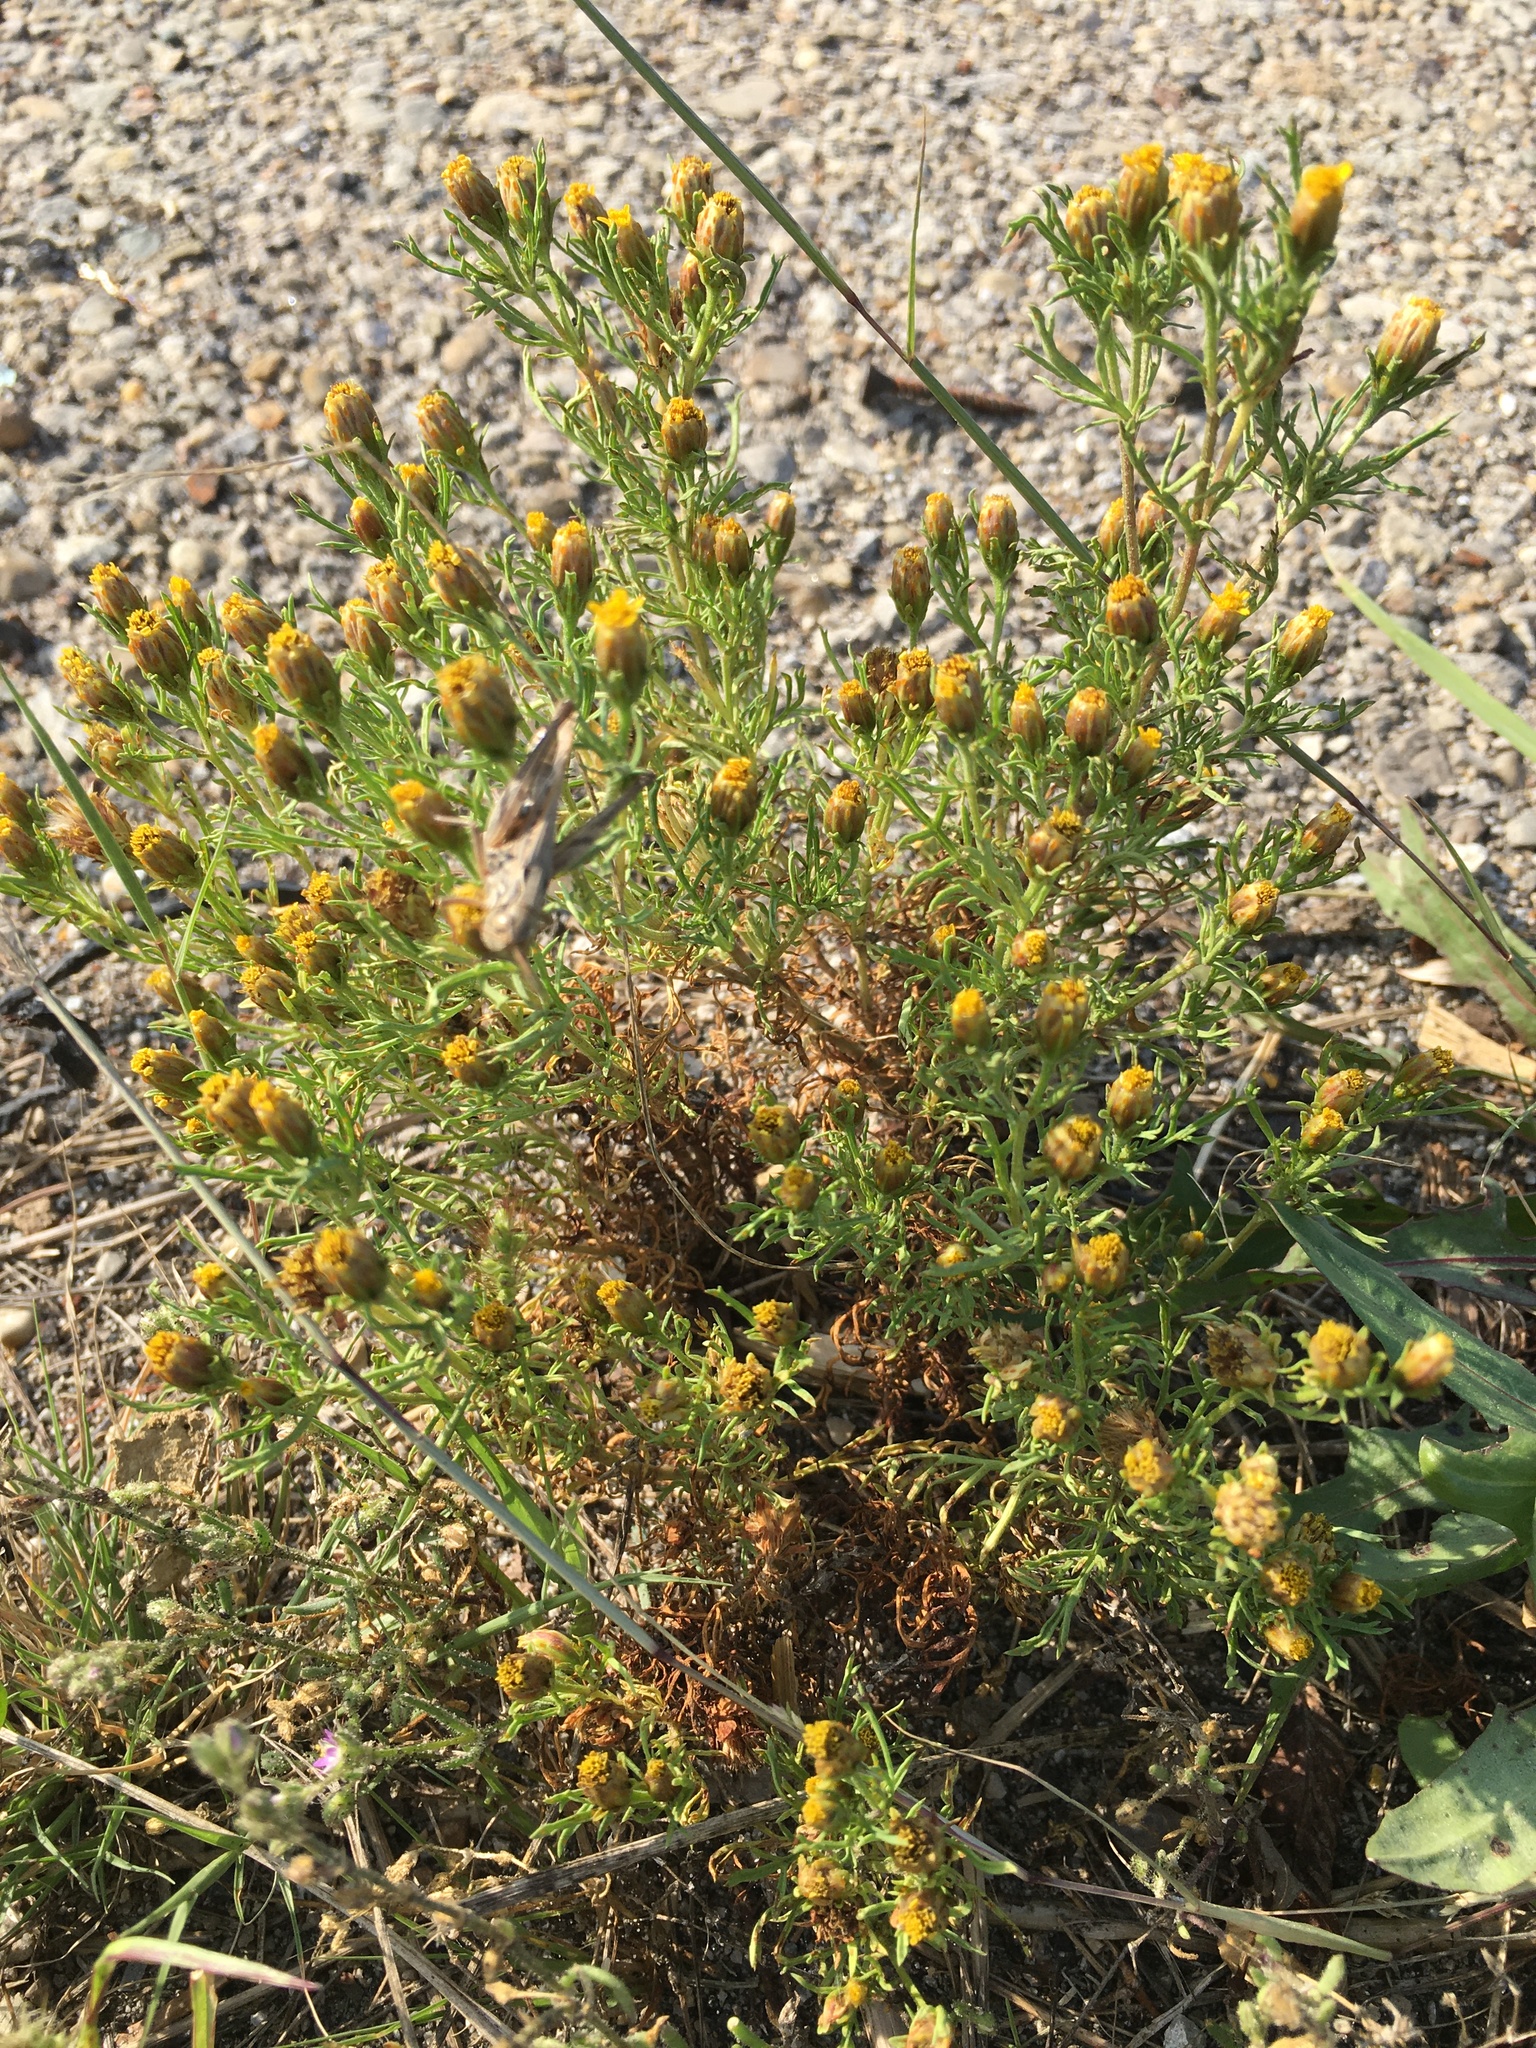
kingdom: Plantae
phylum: Tracheophyta
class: Magnoliopsida
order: Asterales
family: Asteraceae
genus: Dyssodia
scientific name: Dyssodia papposa
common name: Dogweed
